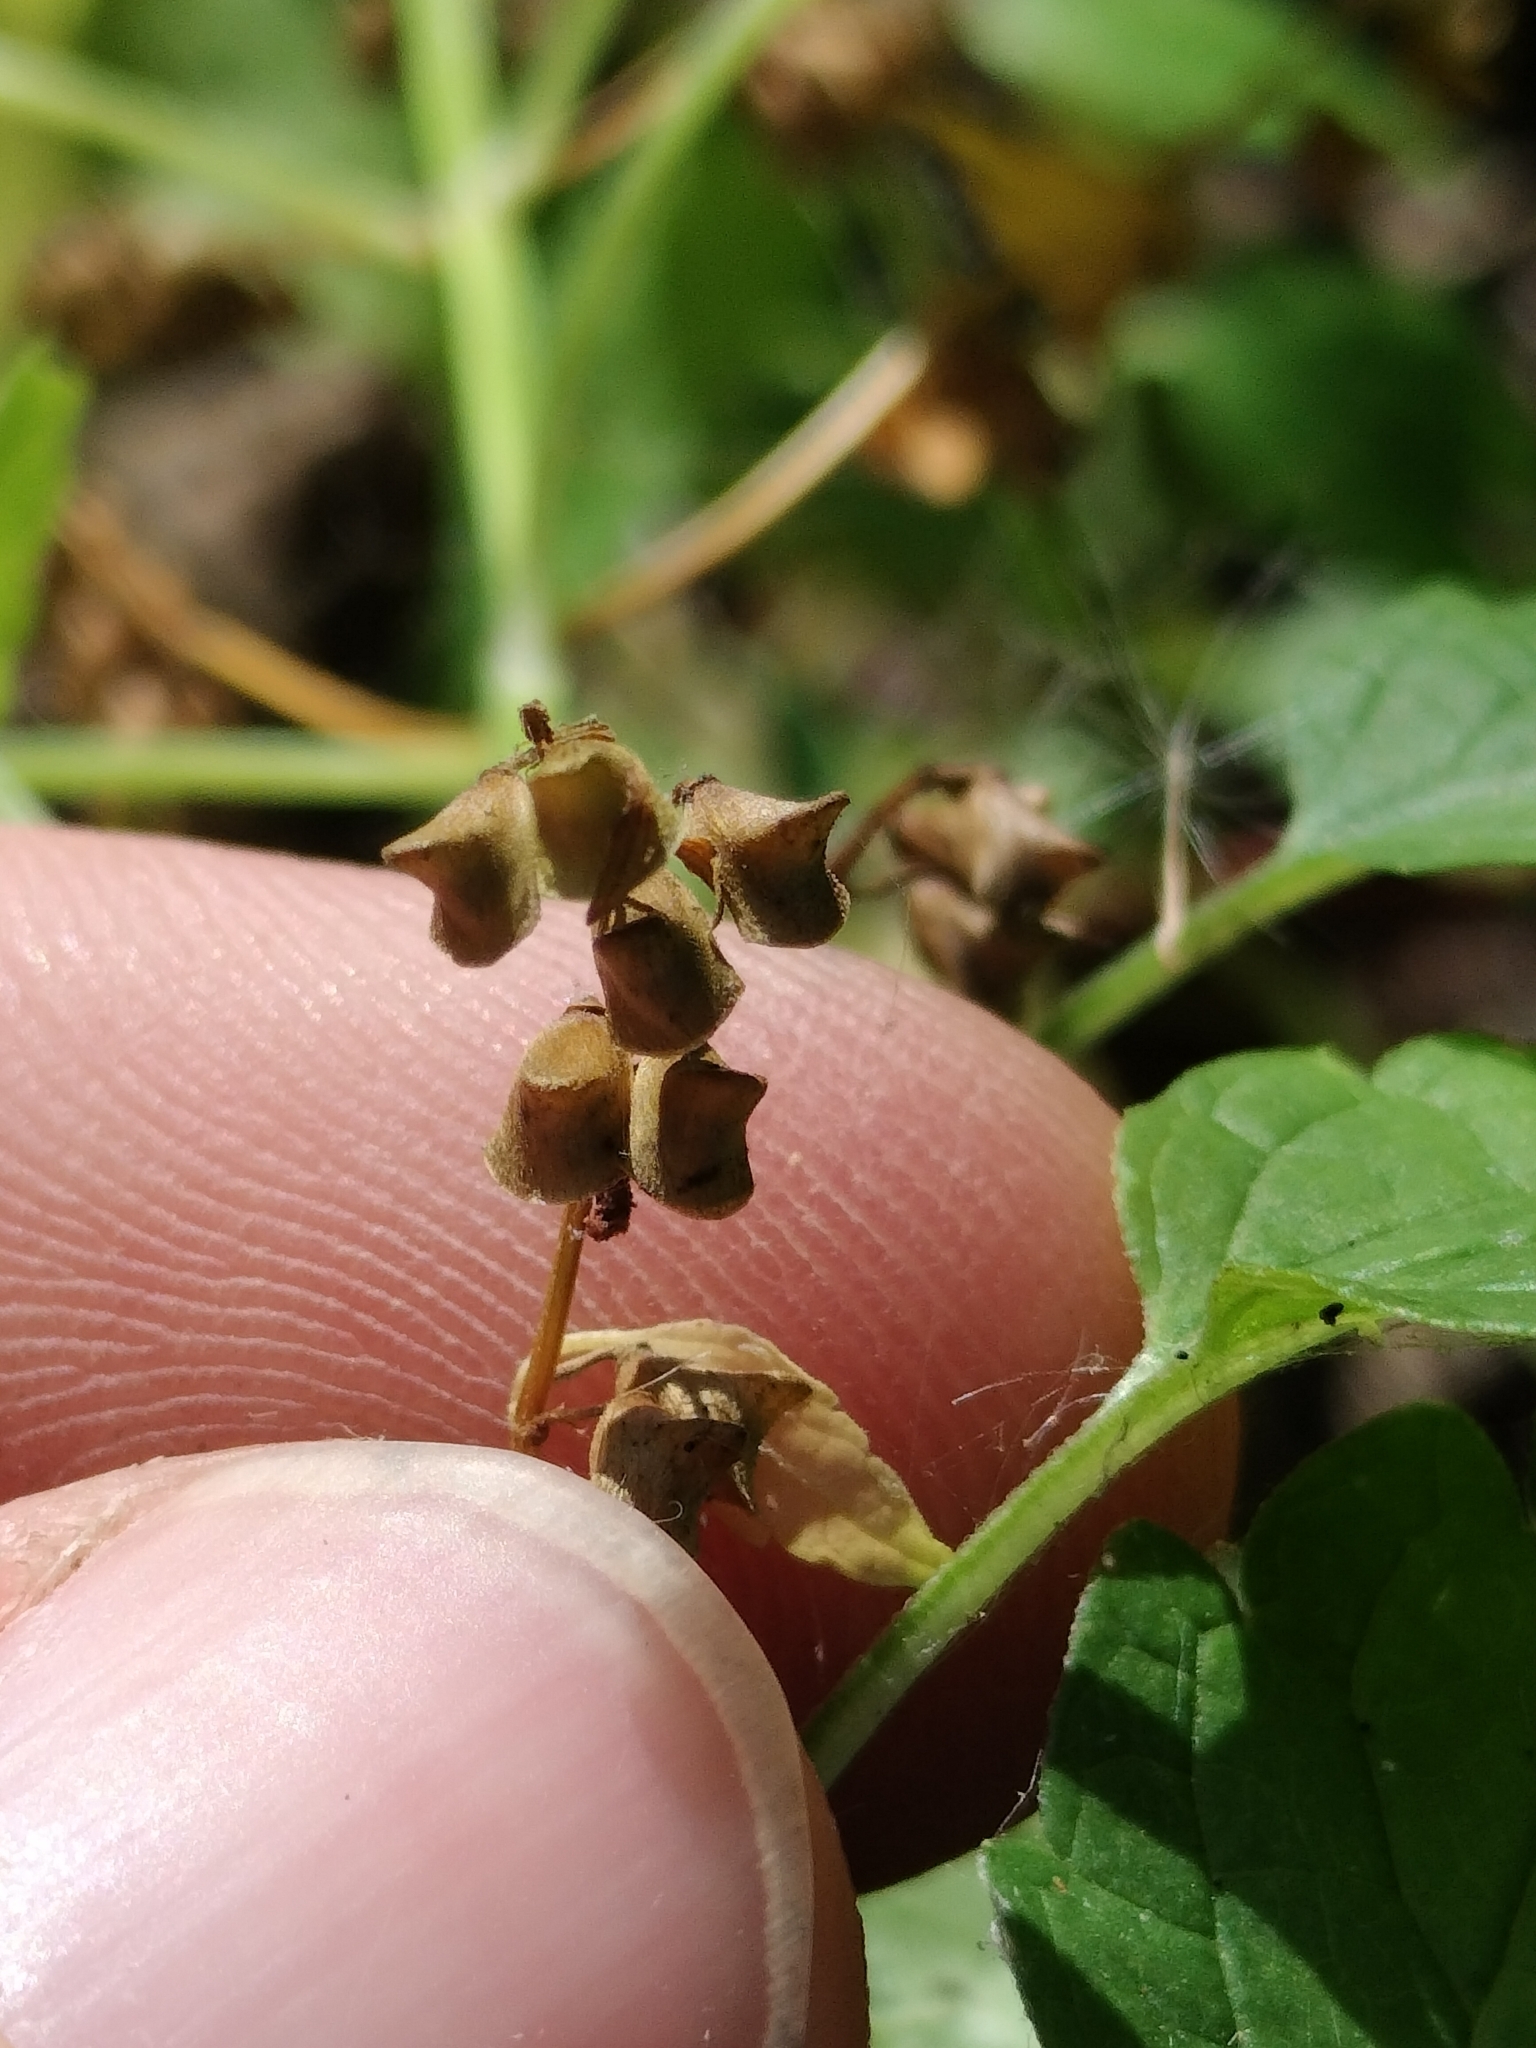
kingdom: Plantae
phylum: Tracheophyta
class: Magnoliopsida
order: Lamiales
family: Lamiaceae
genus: Scutellaria
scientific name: Scutellaria lateriflora
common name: Blue skullcap
